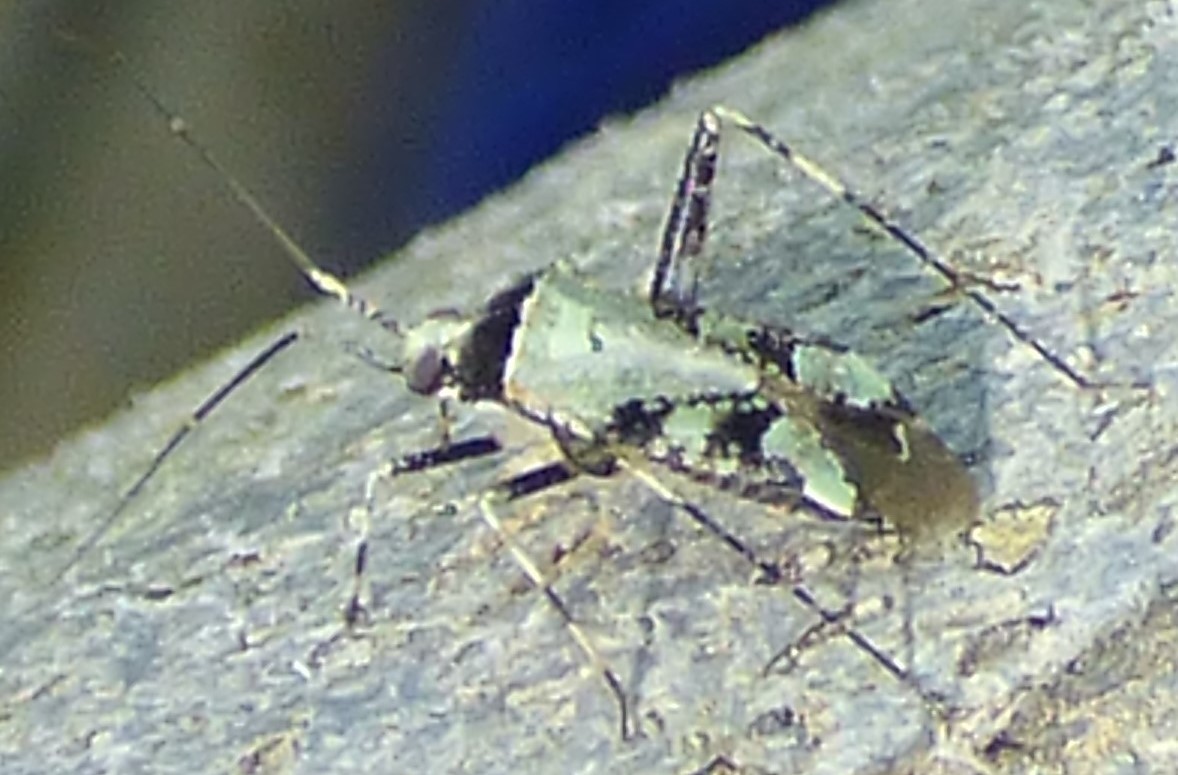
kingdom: Animalia
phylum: Arthropoda
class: Insecta
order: Hemiptera
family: Miridae
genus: Phytocoris
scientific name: Phytocoris nigricollis
